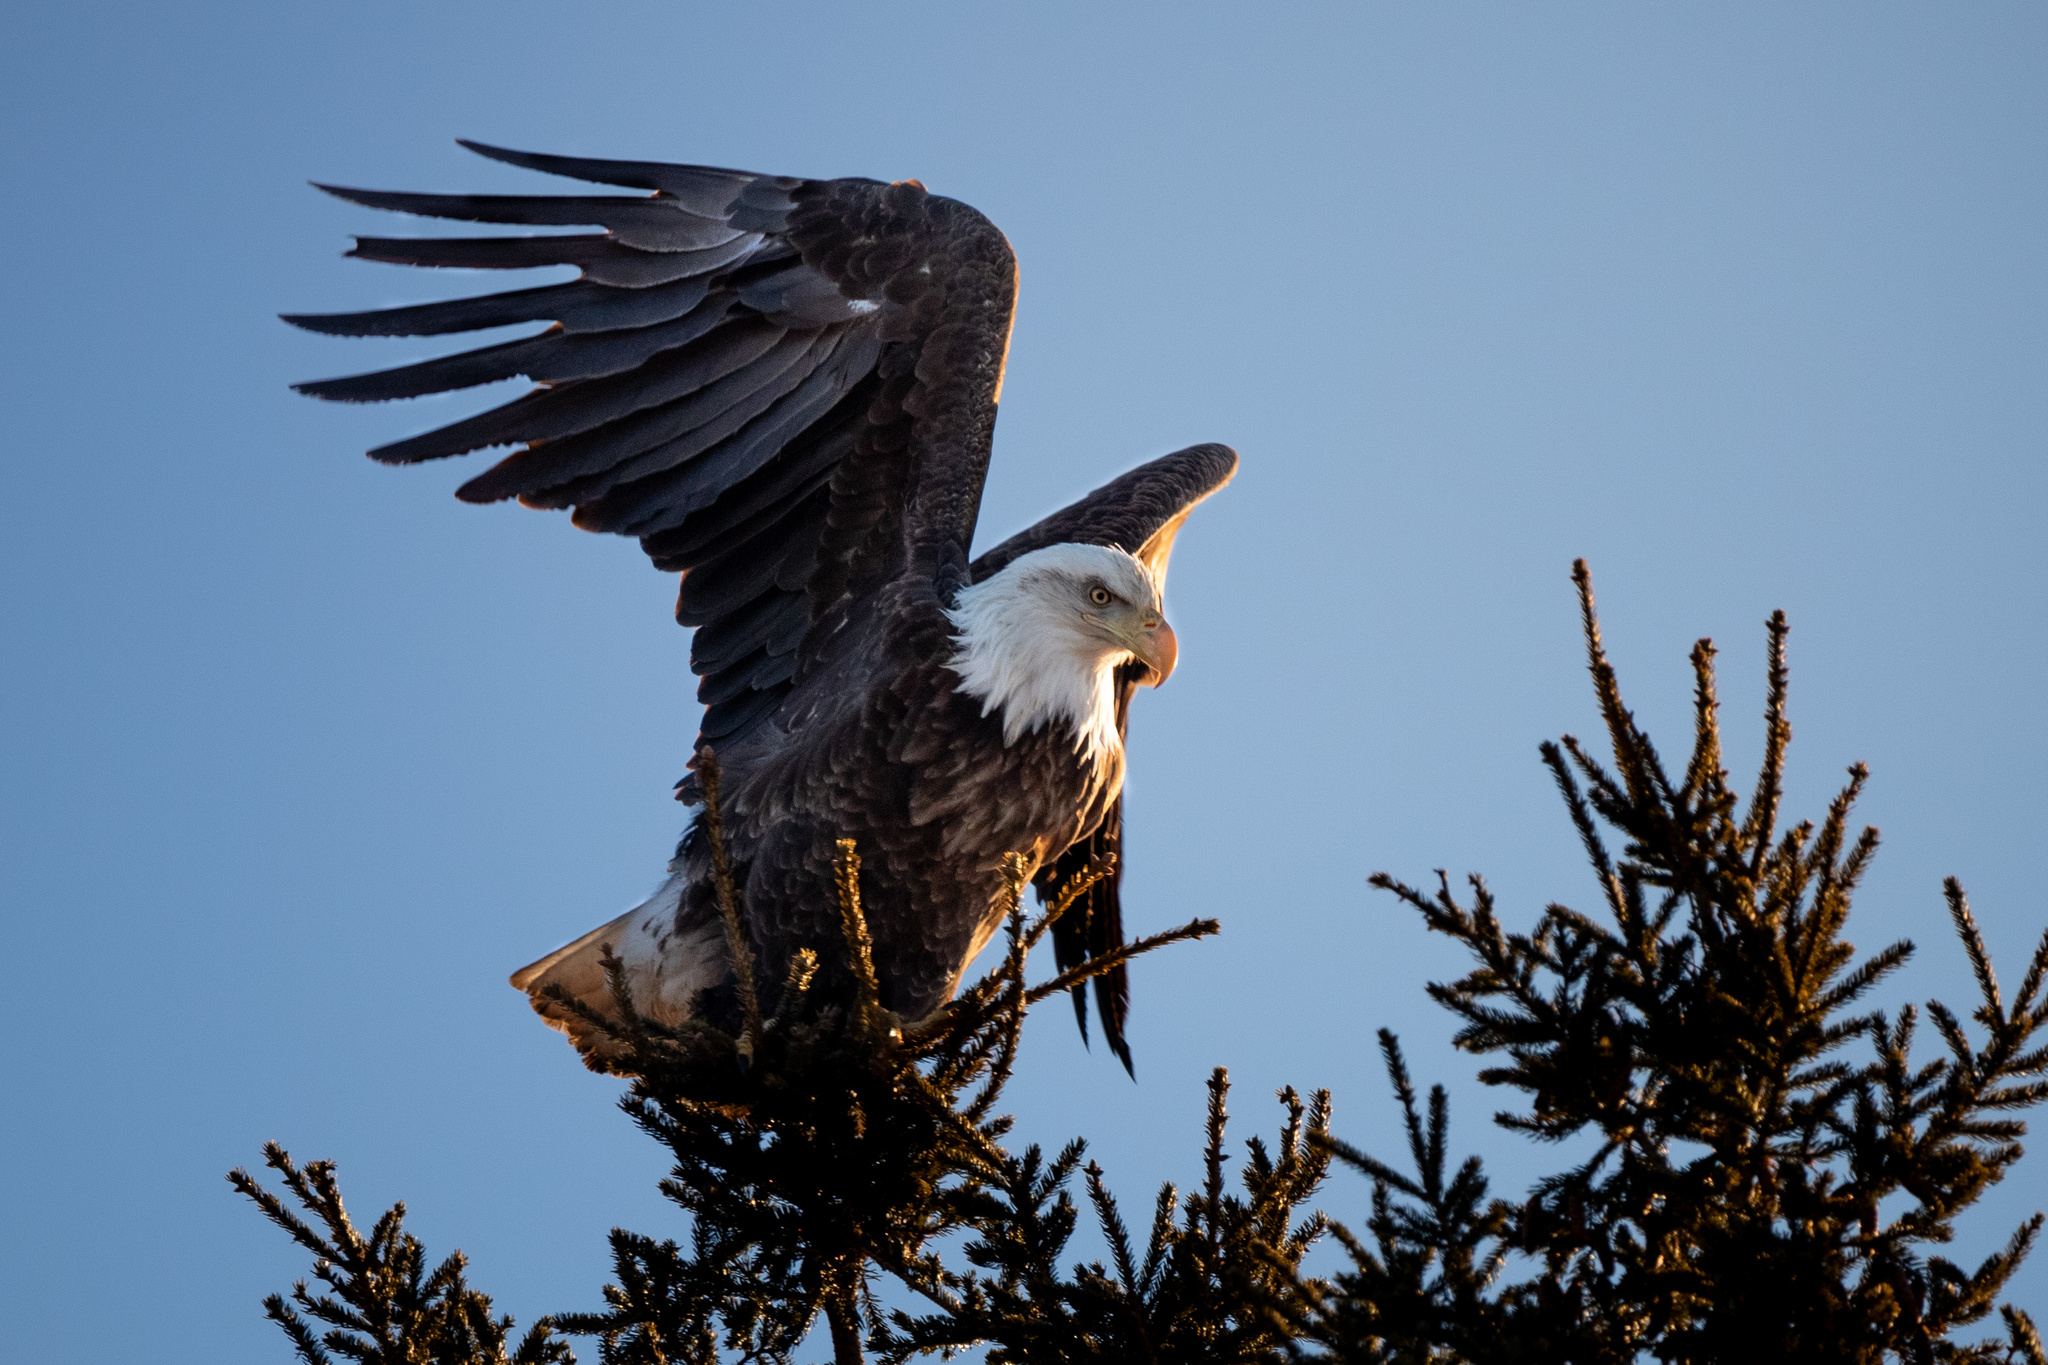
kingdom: Animalia
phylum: Chordata
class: Aves
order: Accipitriformes
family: Accipitridae
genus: Haliaeetus
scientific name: Haliaeetus leucocephalus
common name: Bald eagle
